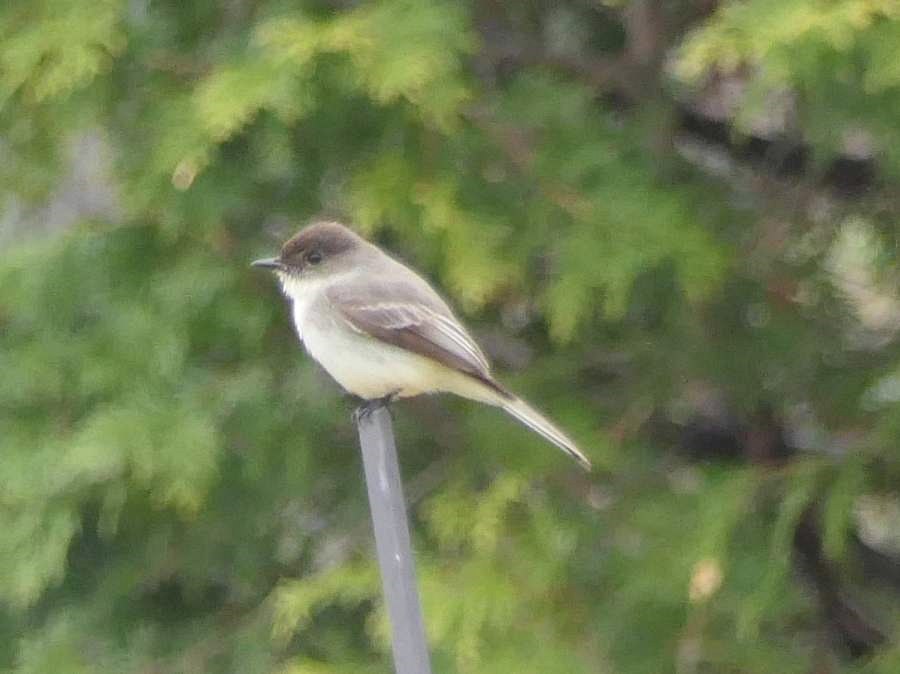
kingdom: Animalia
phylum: Chordata
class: Aves
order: Passeriformes
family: Tyrannidae
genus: Sayornis
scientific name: Sayornis phoebe
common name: Eastern phoebe
